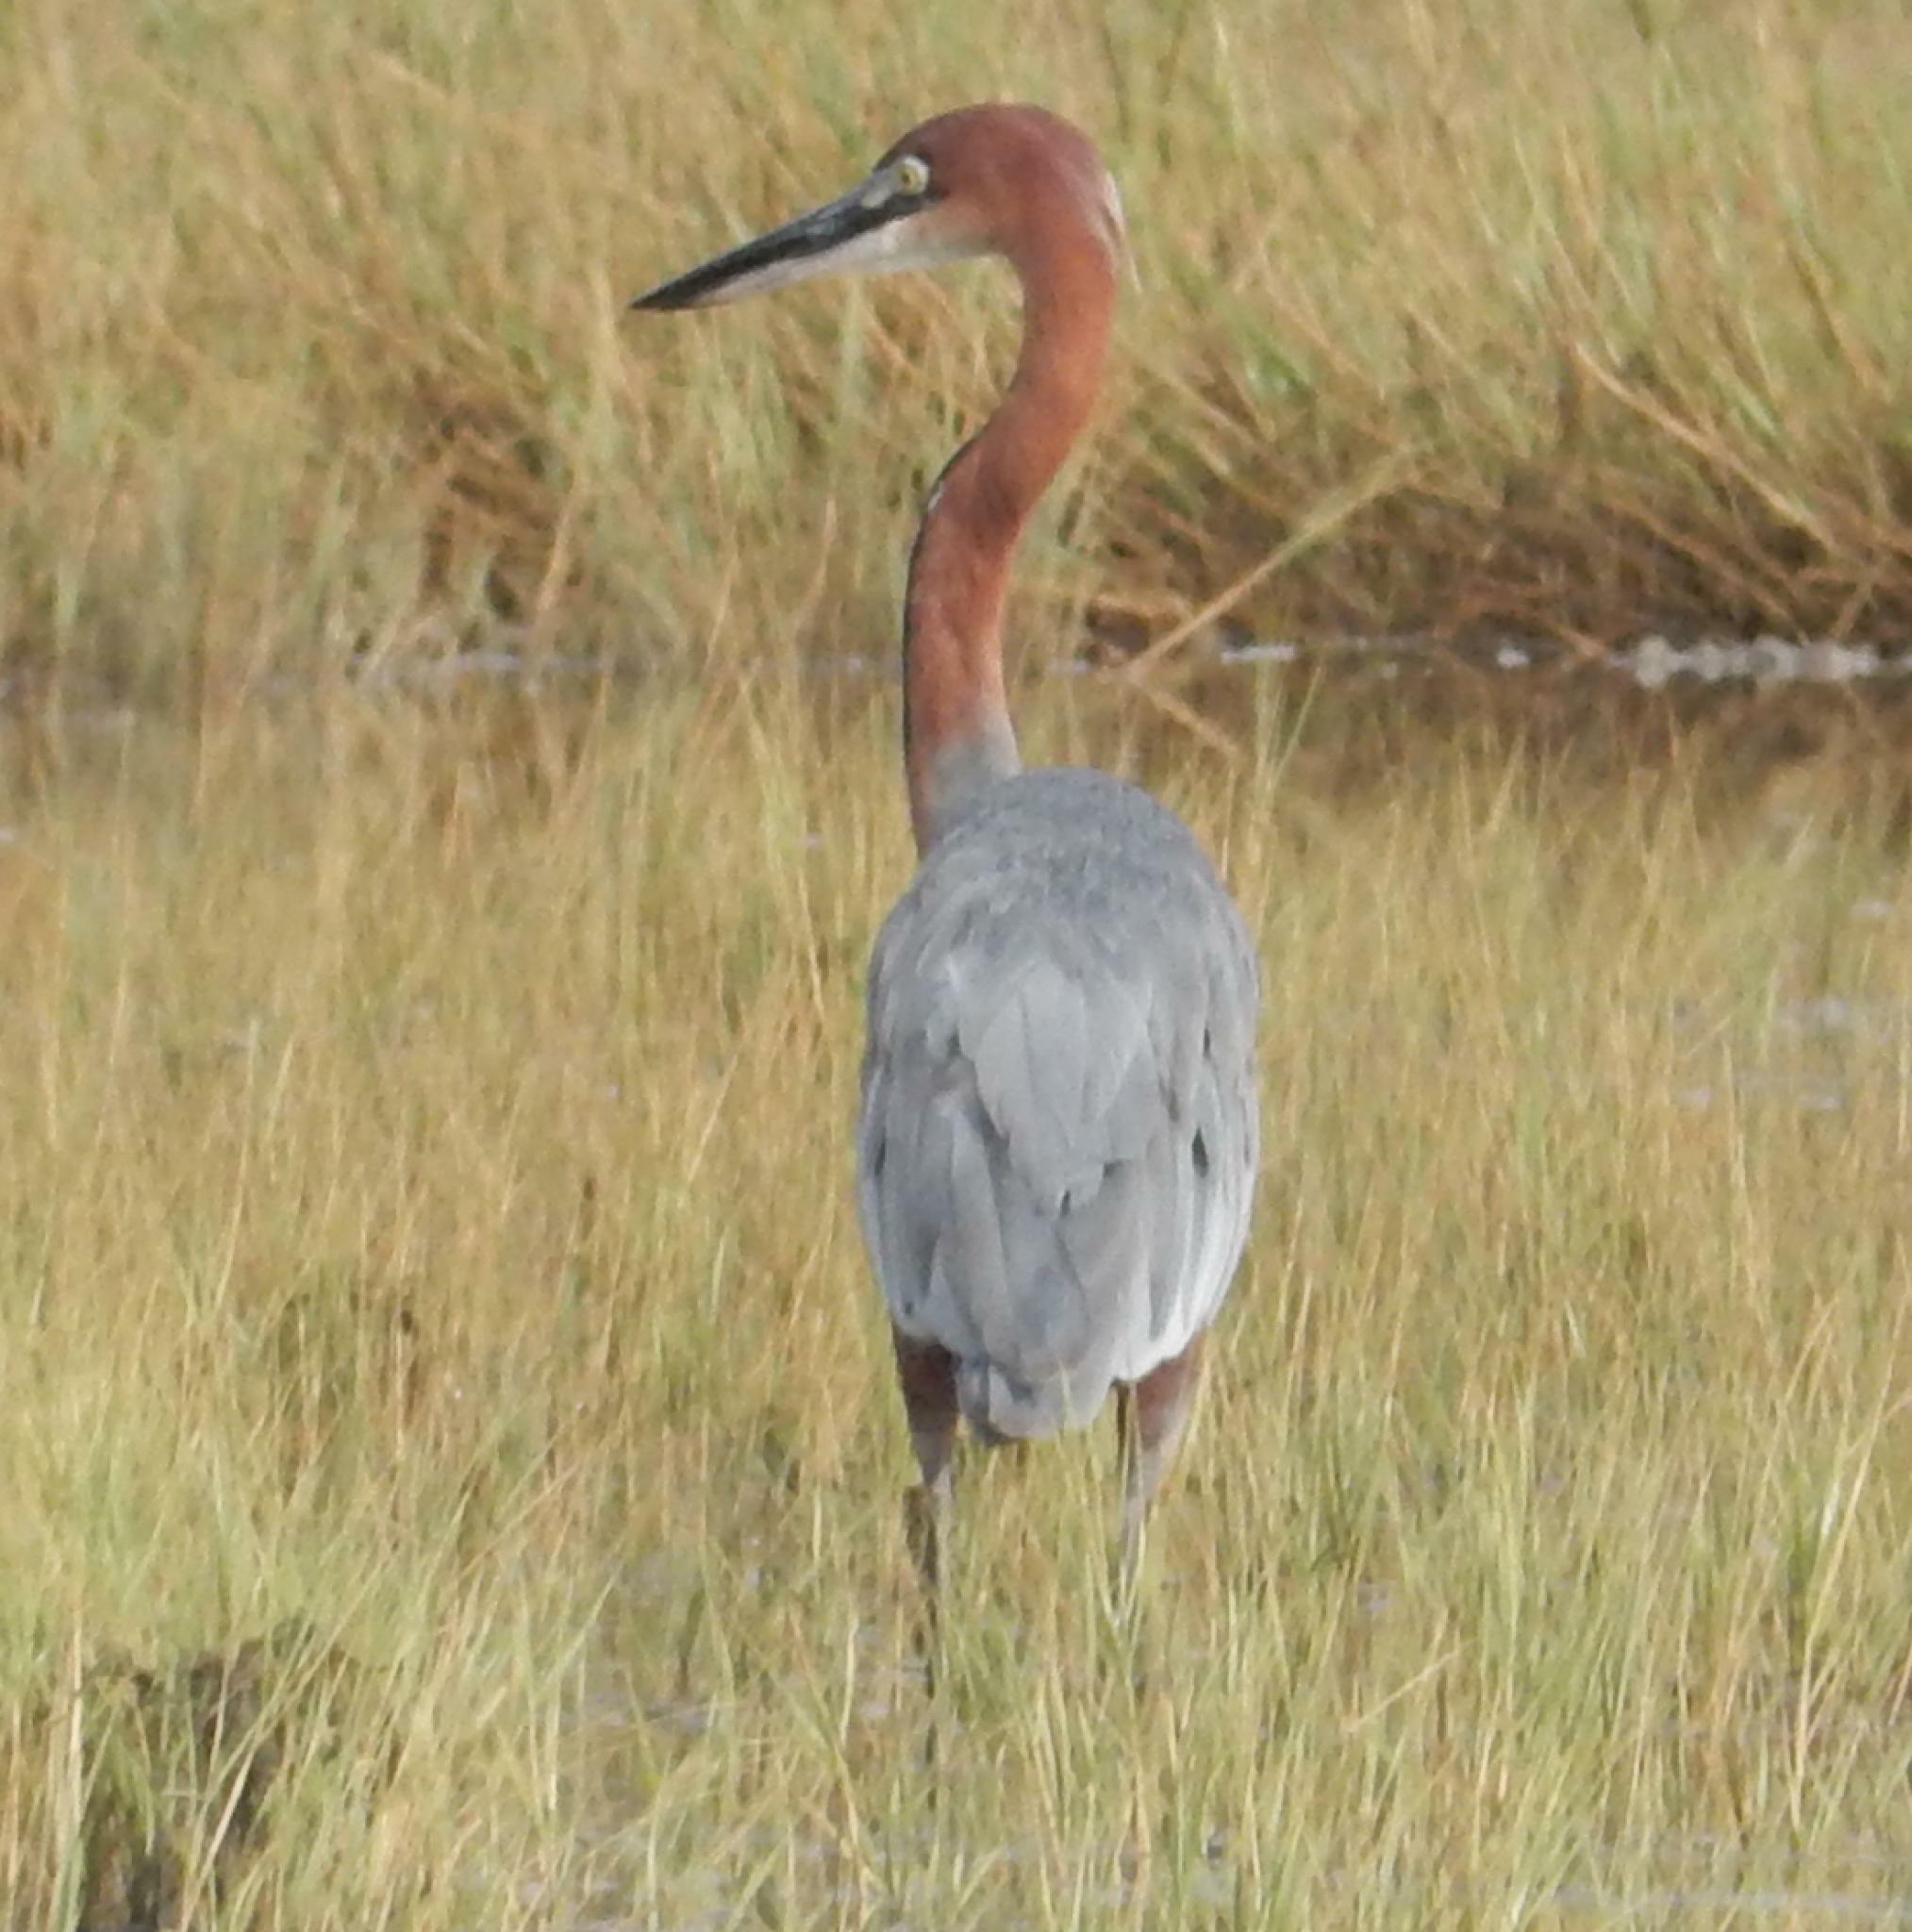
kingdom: Animalia
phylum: Chordata
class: Aves
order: Pelecaniformes
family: Ardeidae
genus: Ardea
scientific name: Ardea goliath
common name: Goliath heron
